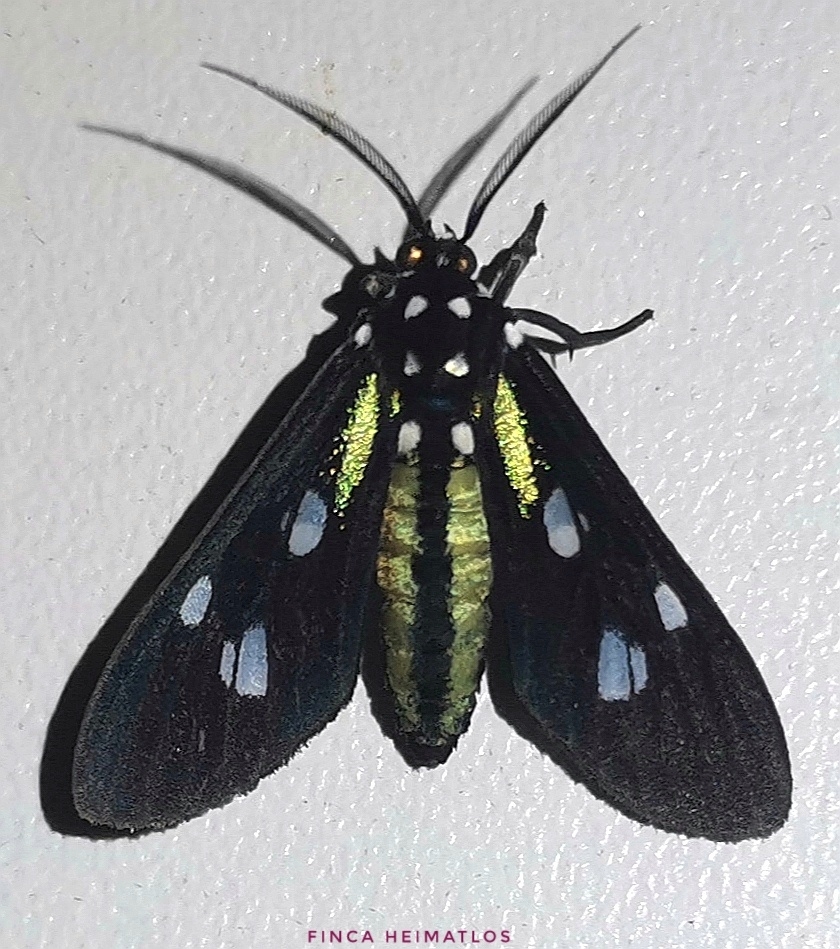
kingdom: Animalia
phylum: Arthropoda
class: Insecta
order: Lepidoptera
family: Erebidae
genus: Leucopleura
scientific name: Leucopleura viridis
